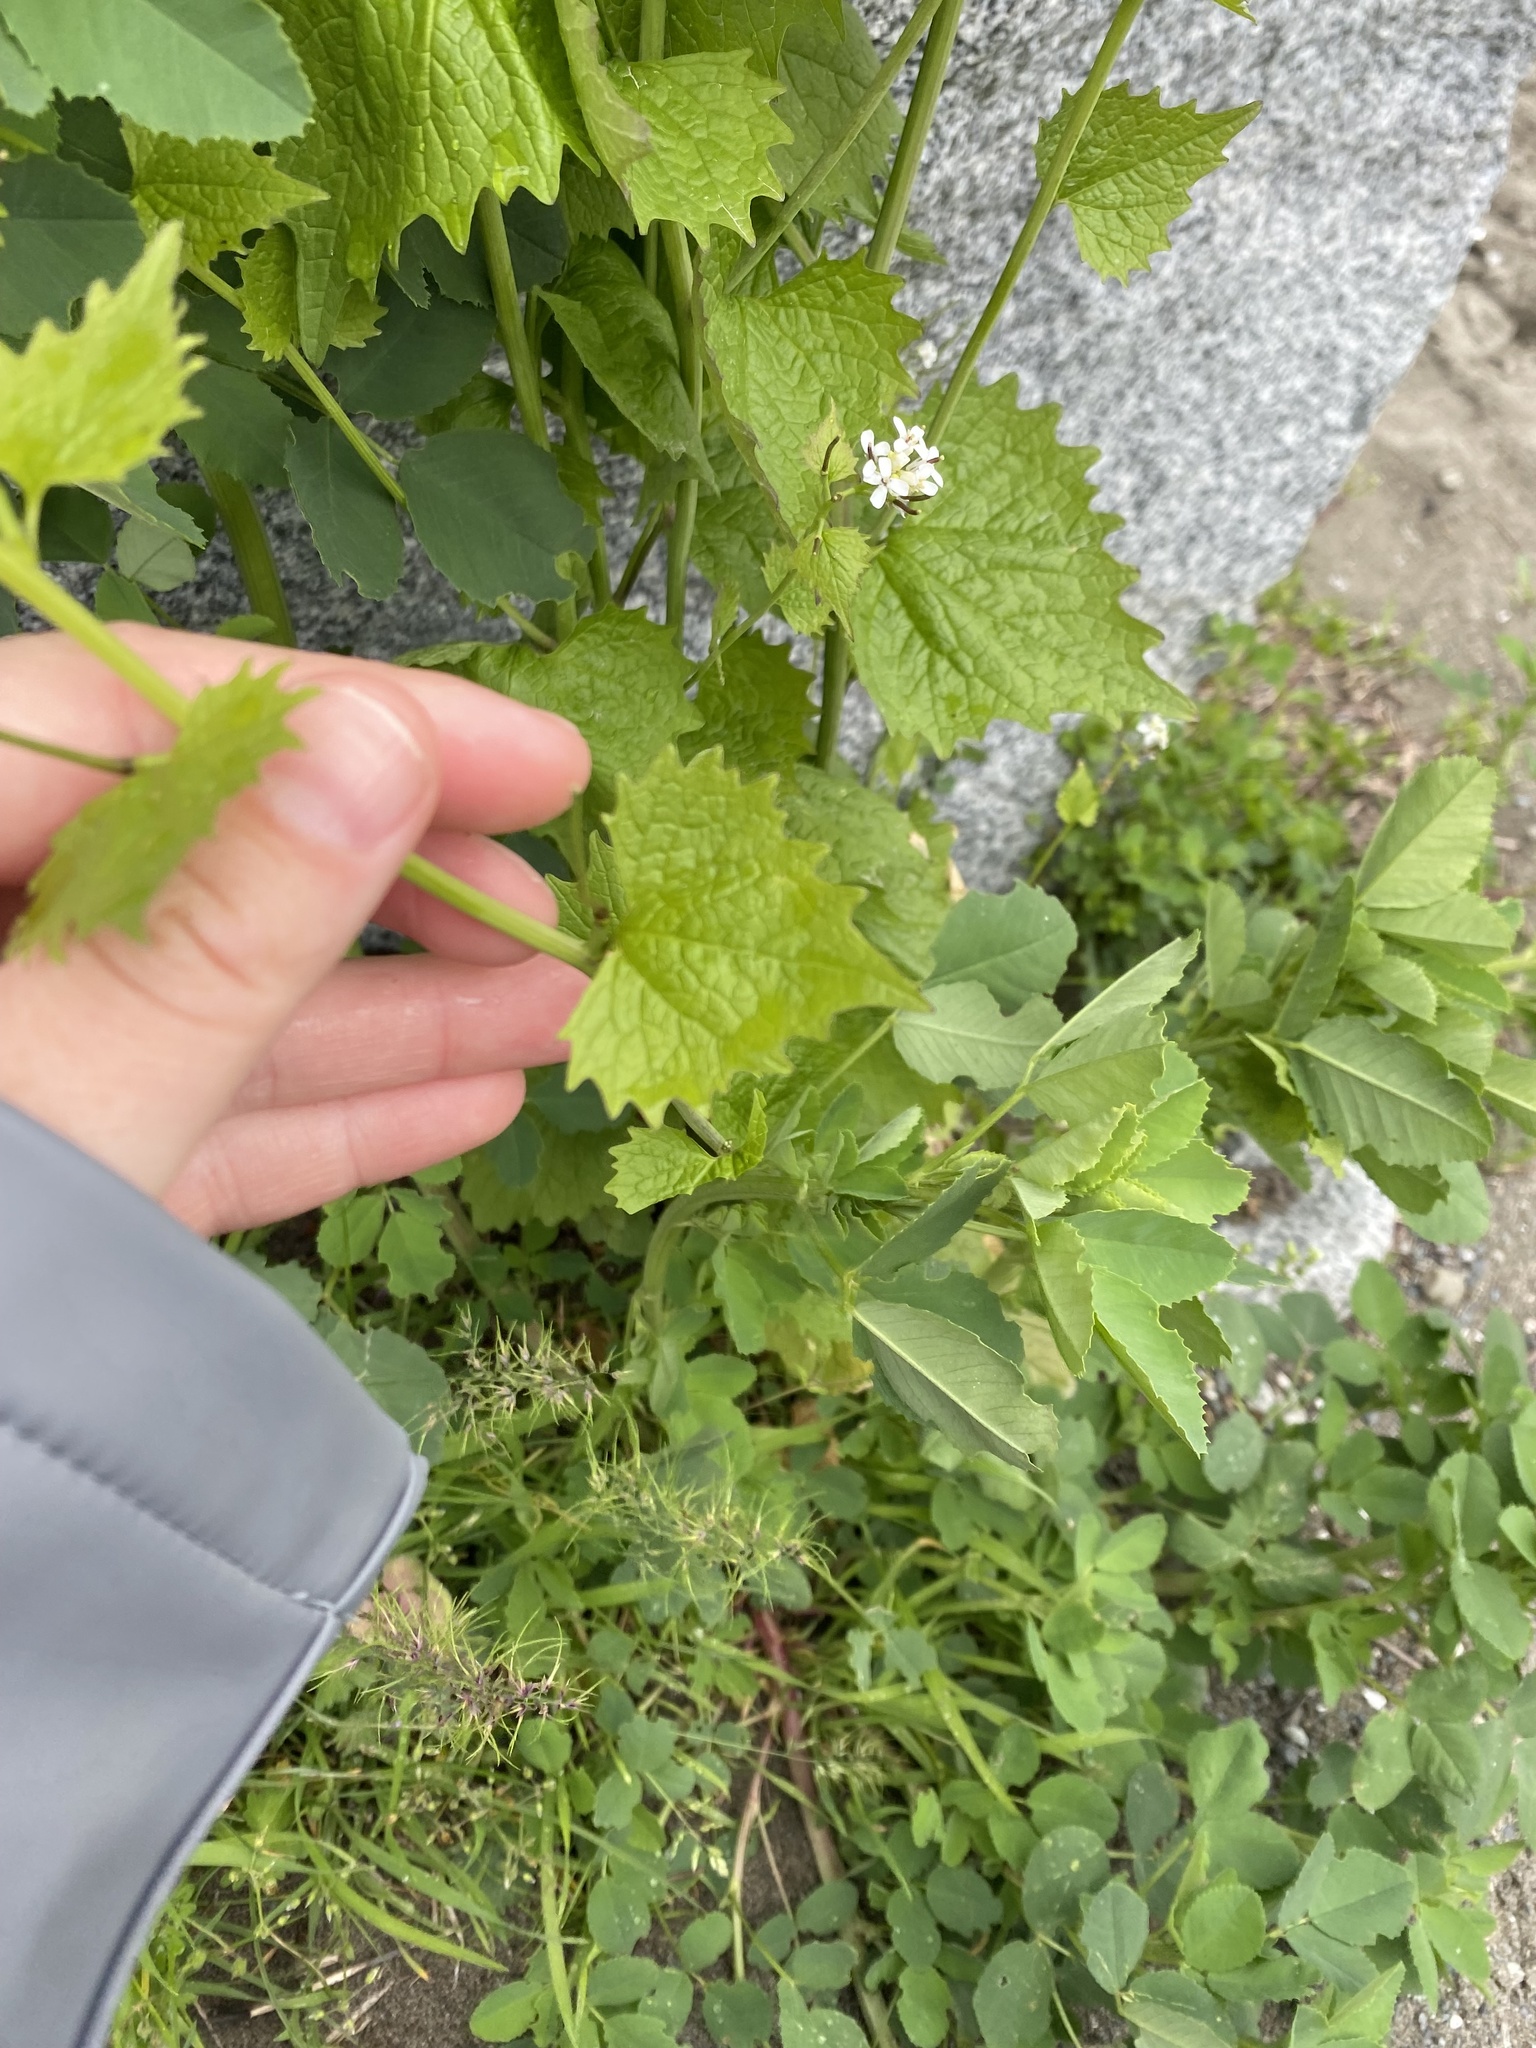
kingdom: Plantae
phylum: Tracheophyta
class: Magnoliopsida
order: Brassicales
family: Brassicaceae
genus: Alliaria
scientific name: Alliaria petiolata
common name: Garlic mustard
